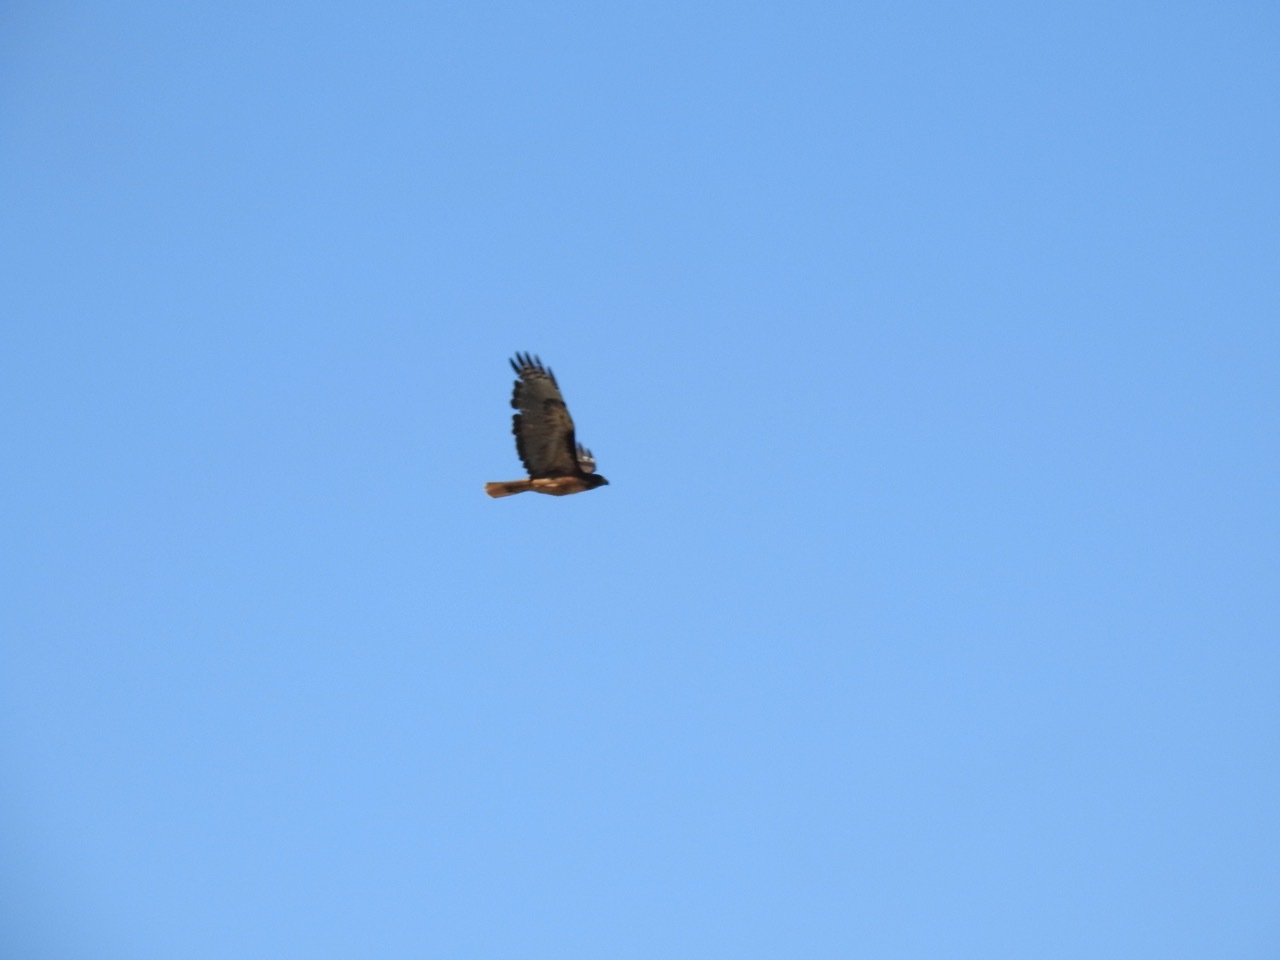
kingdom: Animalia
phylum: Chordata
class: Aves
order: Accipitriformes
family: Accipitridae
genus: Buteo
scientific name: Buteo jamaicensis
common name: Red-tailed hawk
